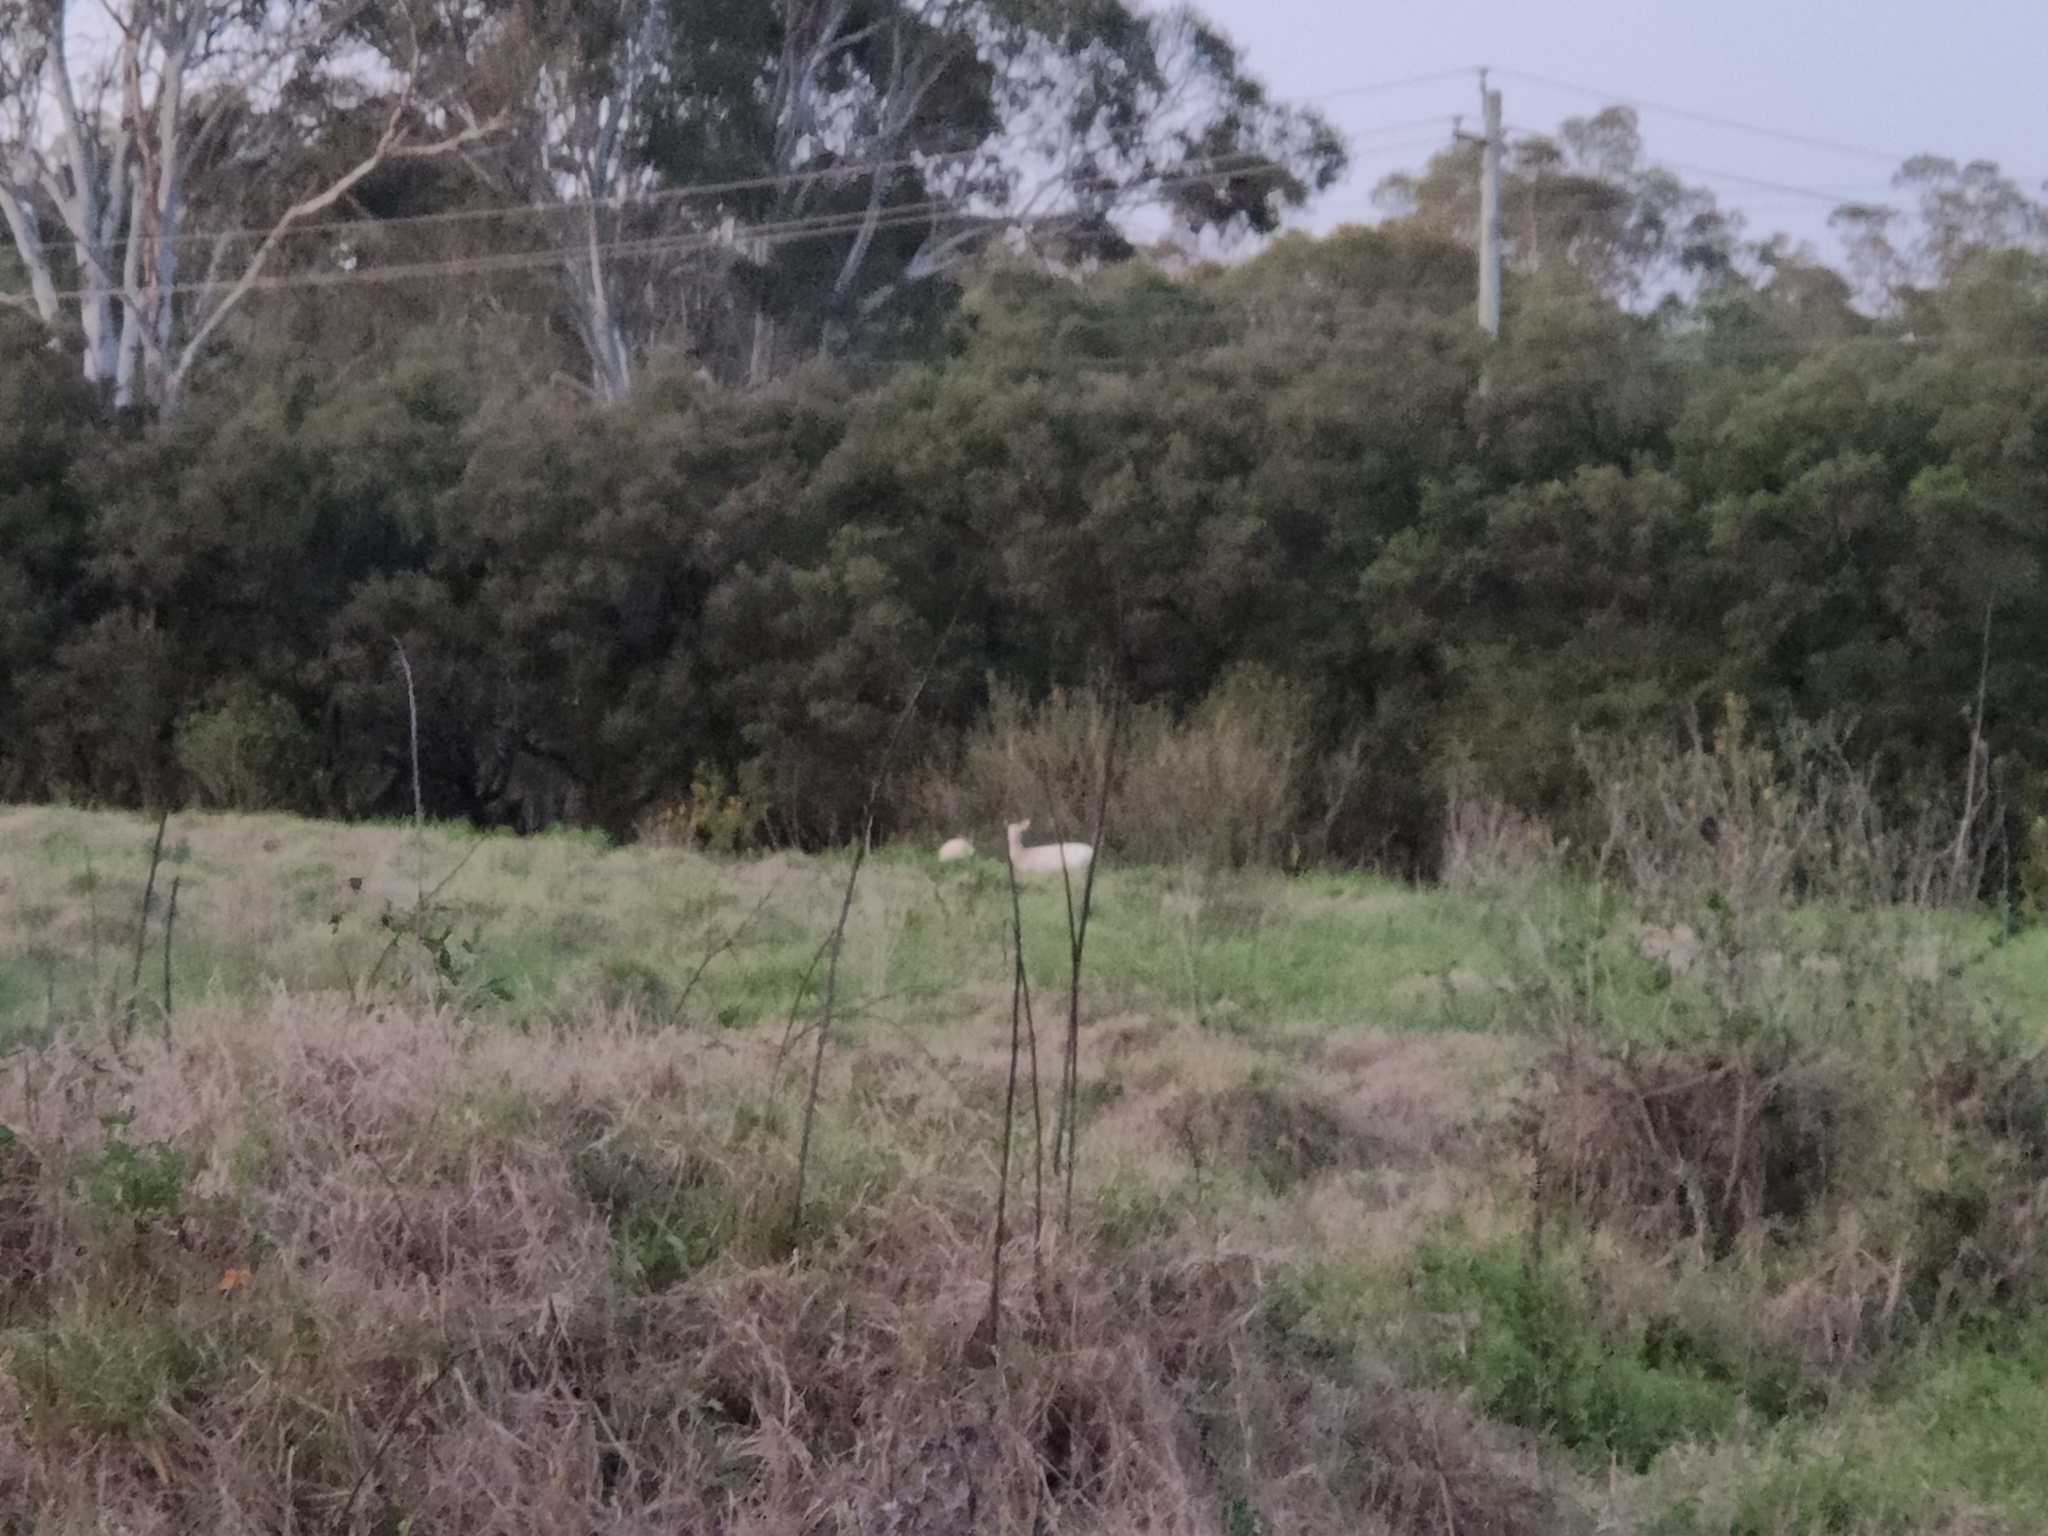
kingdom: Animalia
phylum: Chordata
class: Mammalia
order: Artiodactyla
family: Cervidae
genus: Dama
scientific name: Dama dama
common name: Fallow deer
